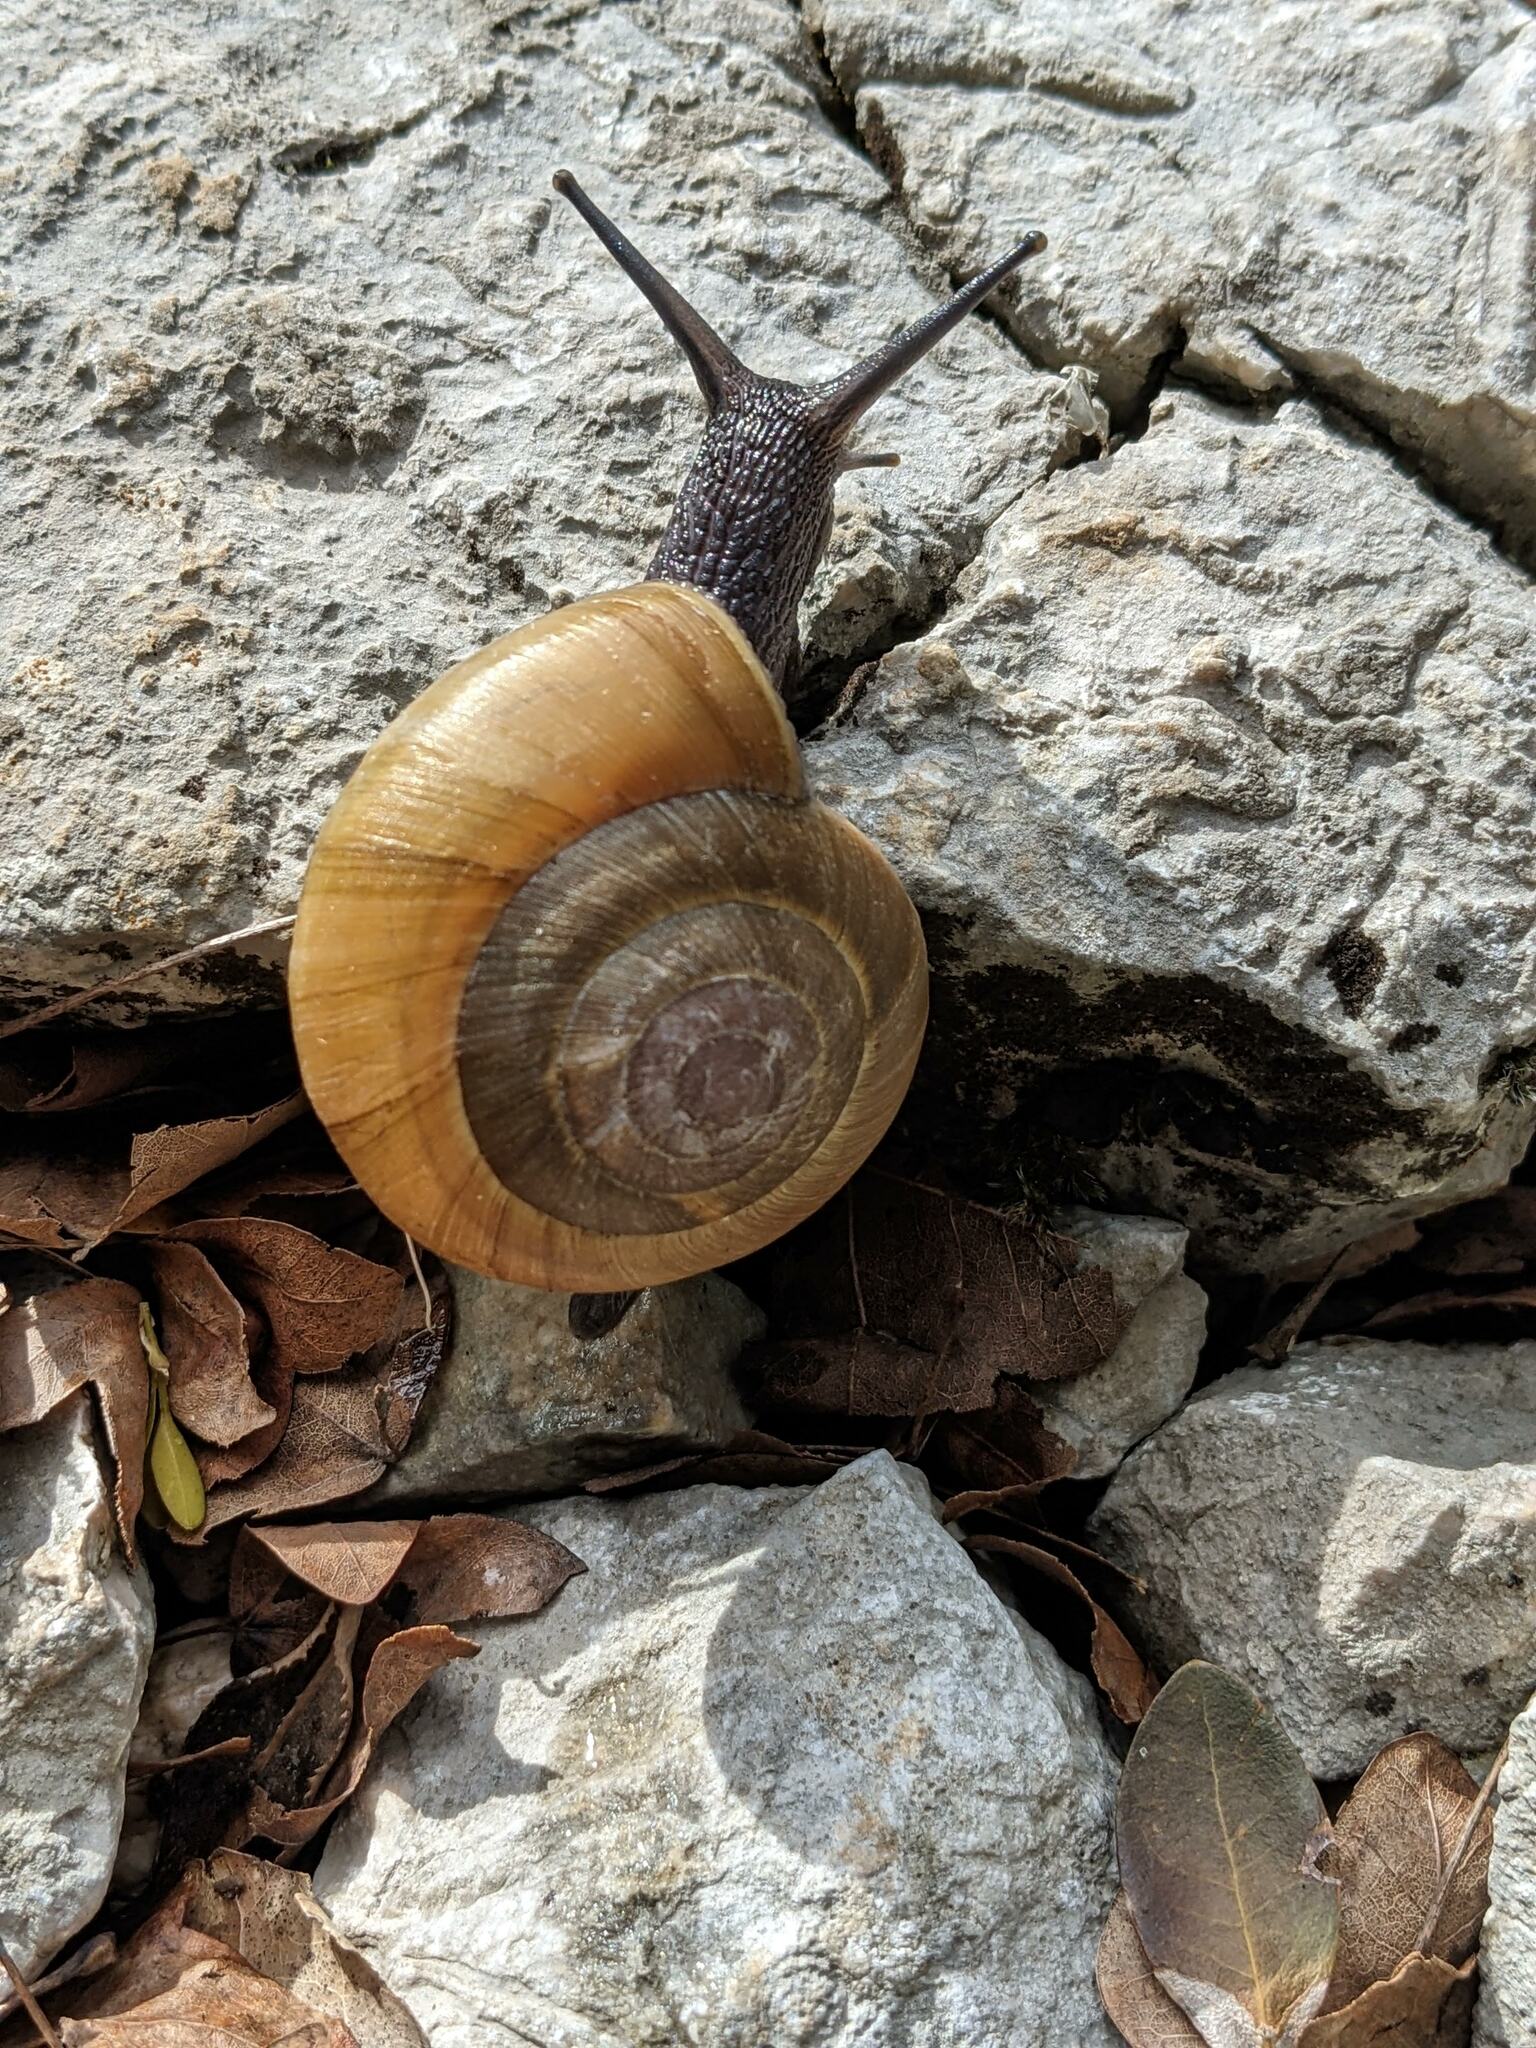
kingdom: Animalia
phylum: Mollusca
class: Gastropoda
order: Stylommatophora
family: Zonitidae
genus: Zonites
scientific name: Zonites algirus
